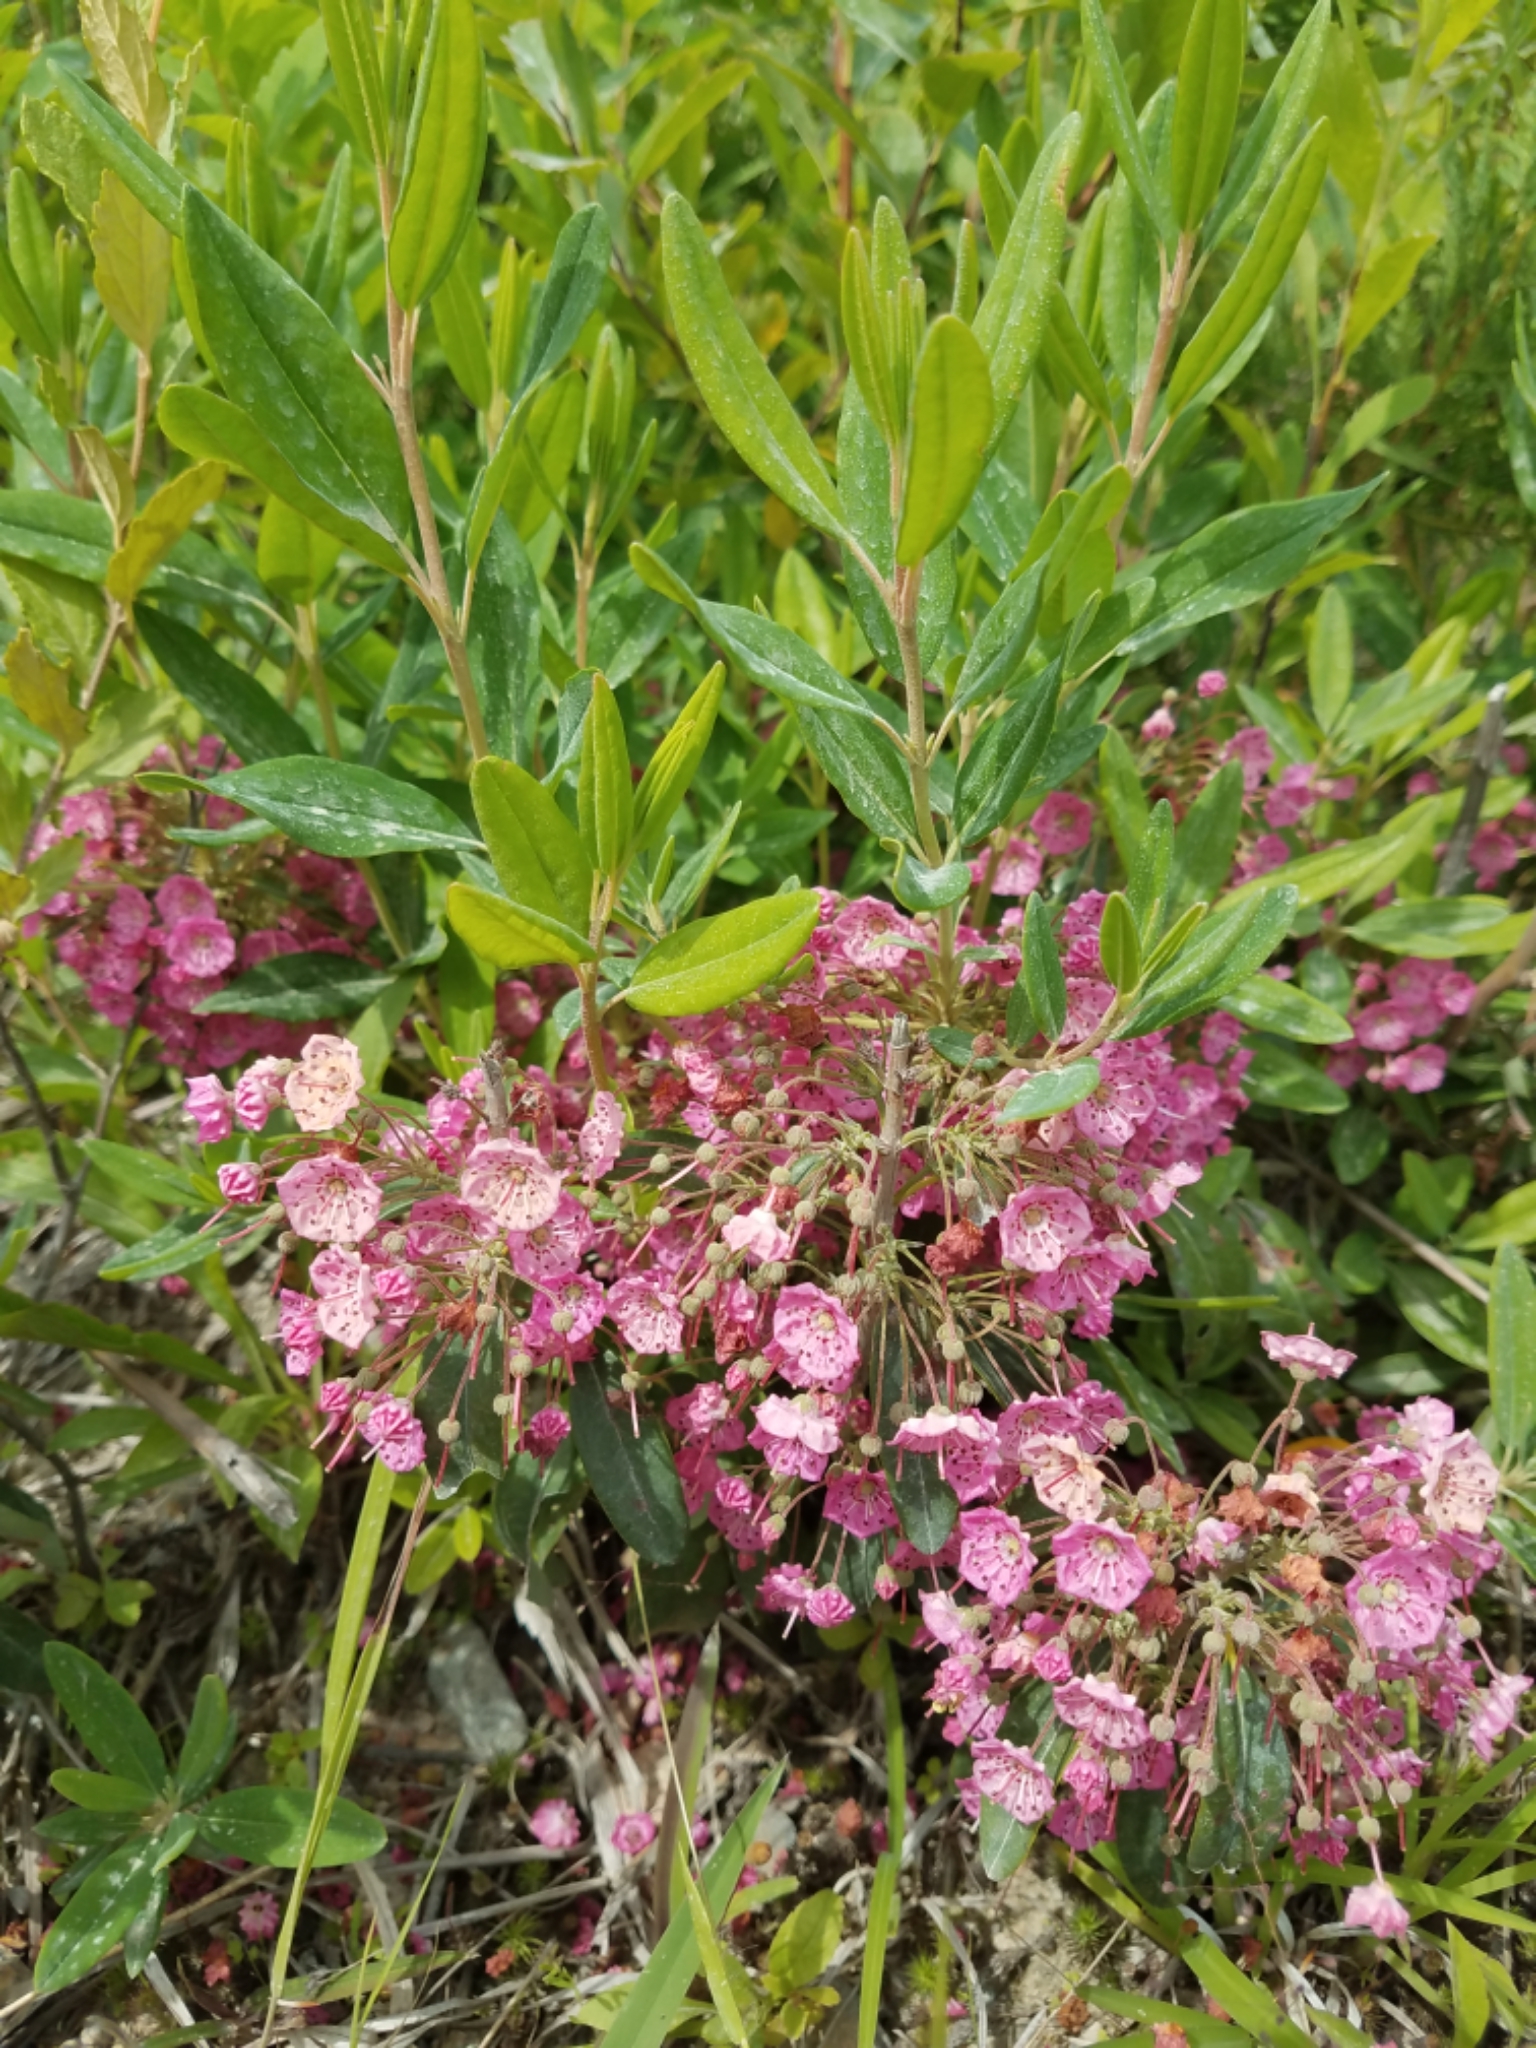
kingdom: Plantae
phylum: Tracheophyta
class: Magnoliopsida
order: Ericales
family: Ericaceae
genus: Kalmia
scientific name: Kalmia angustifolia
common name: Sheep-laurel
